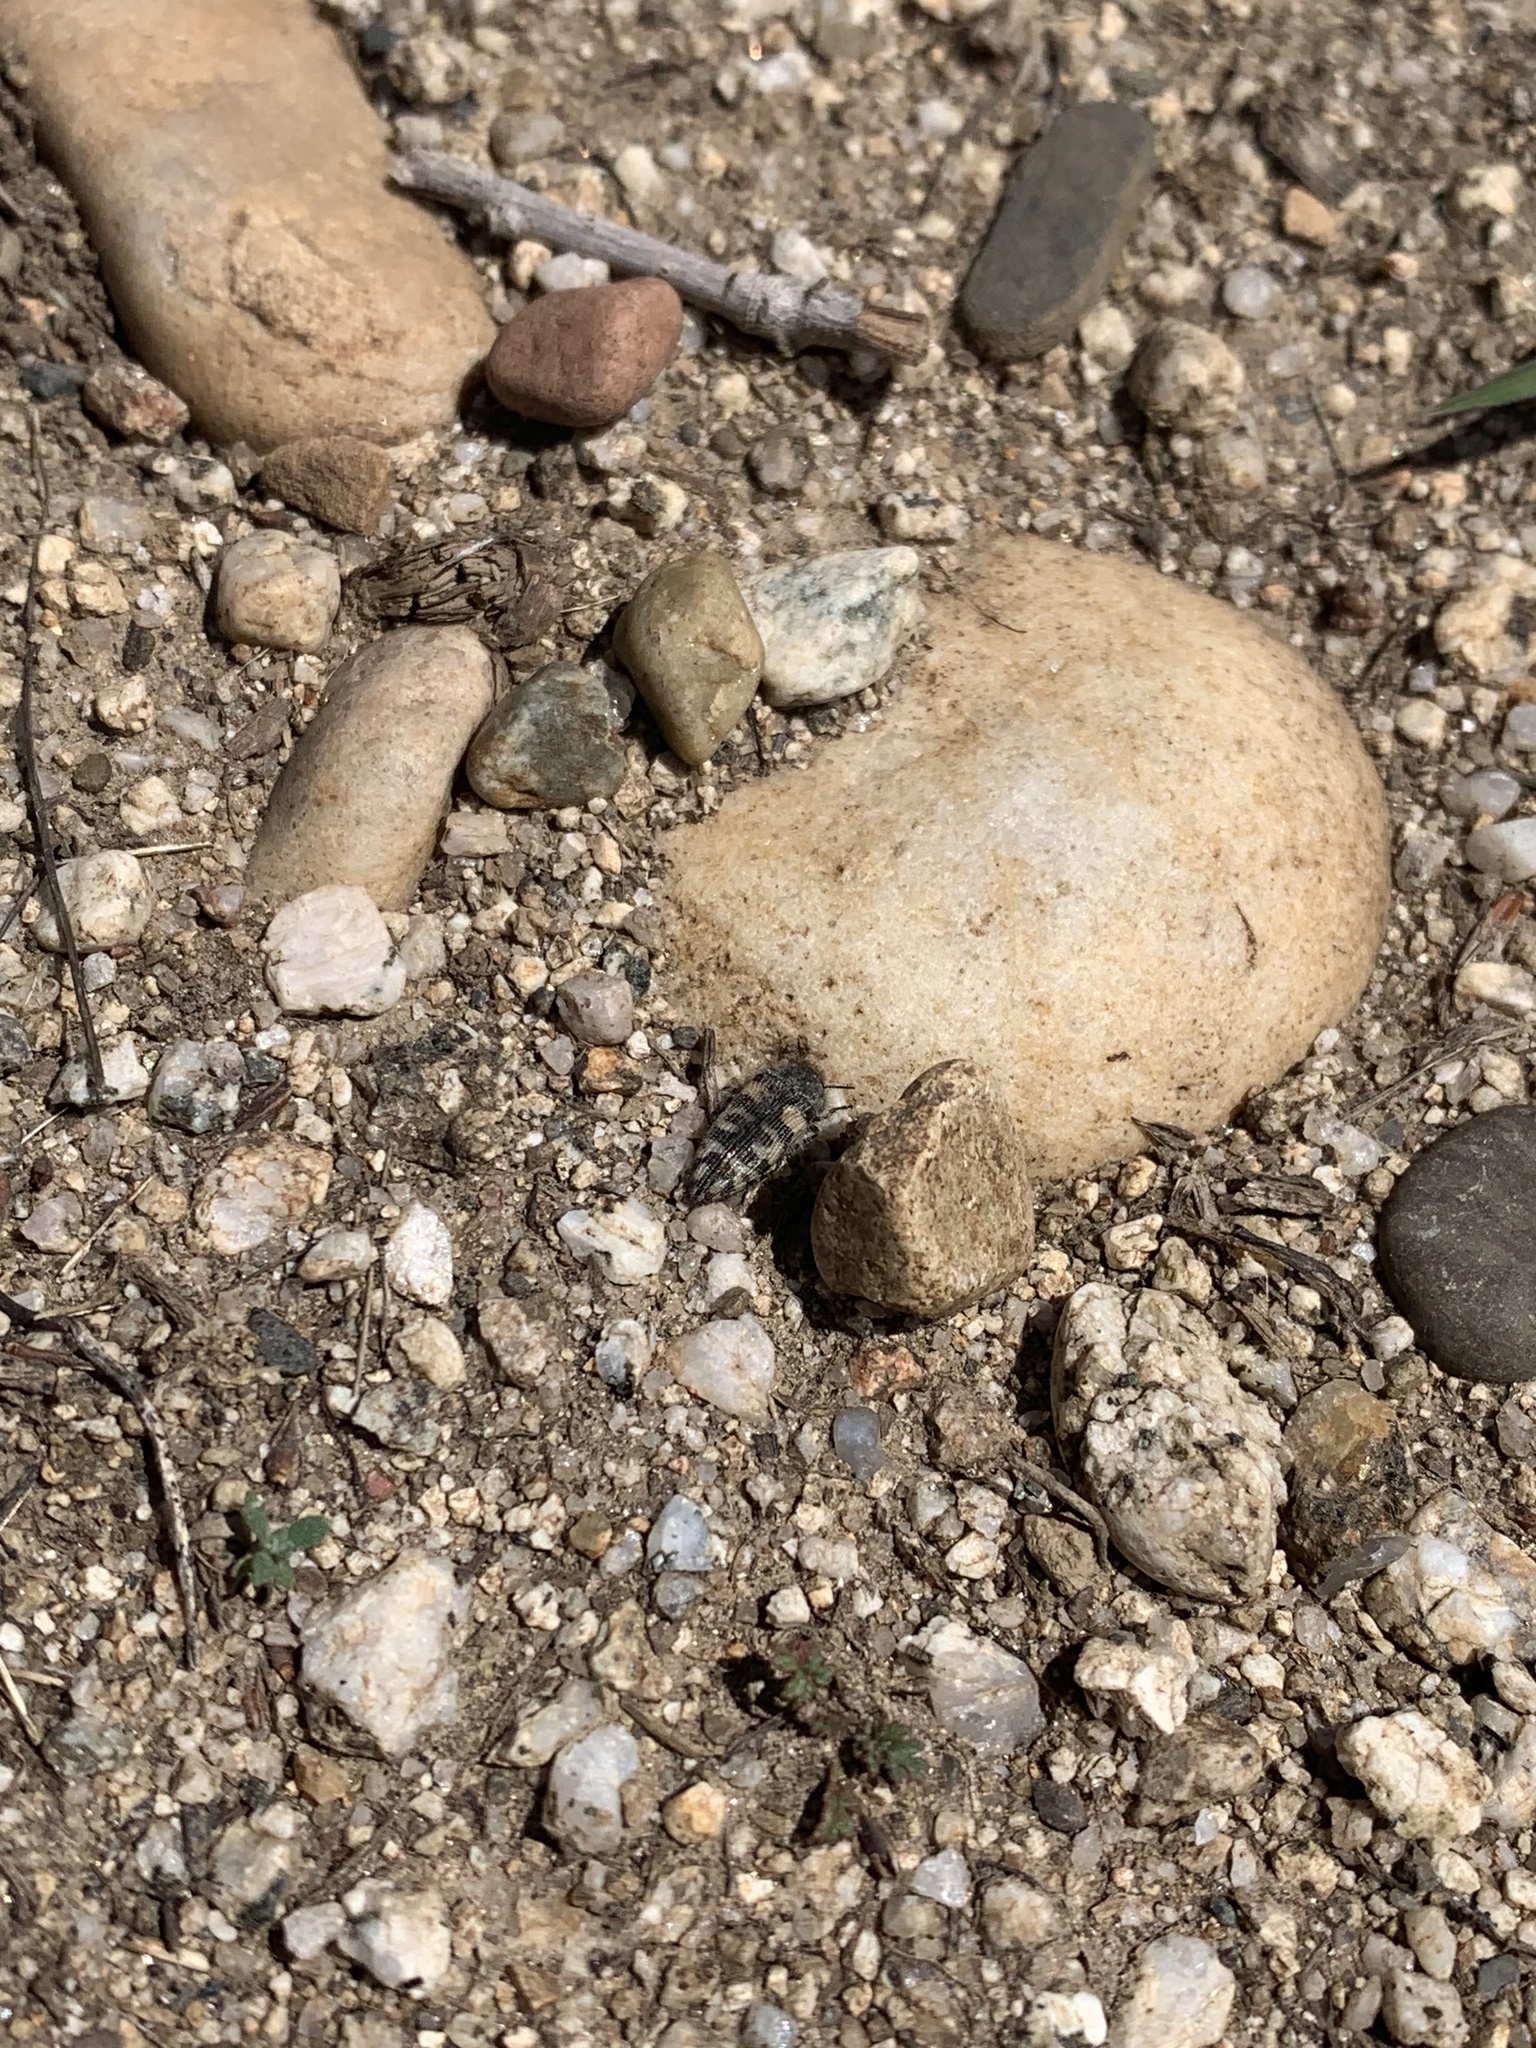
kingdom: Animalia
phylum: Arthropoda
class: Insecta
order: Coleoptera
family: Buprestidae
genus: Acmaeodera
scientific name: Acmaeodera diffusa
